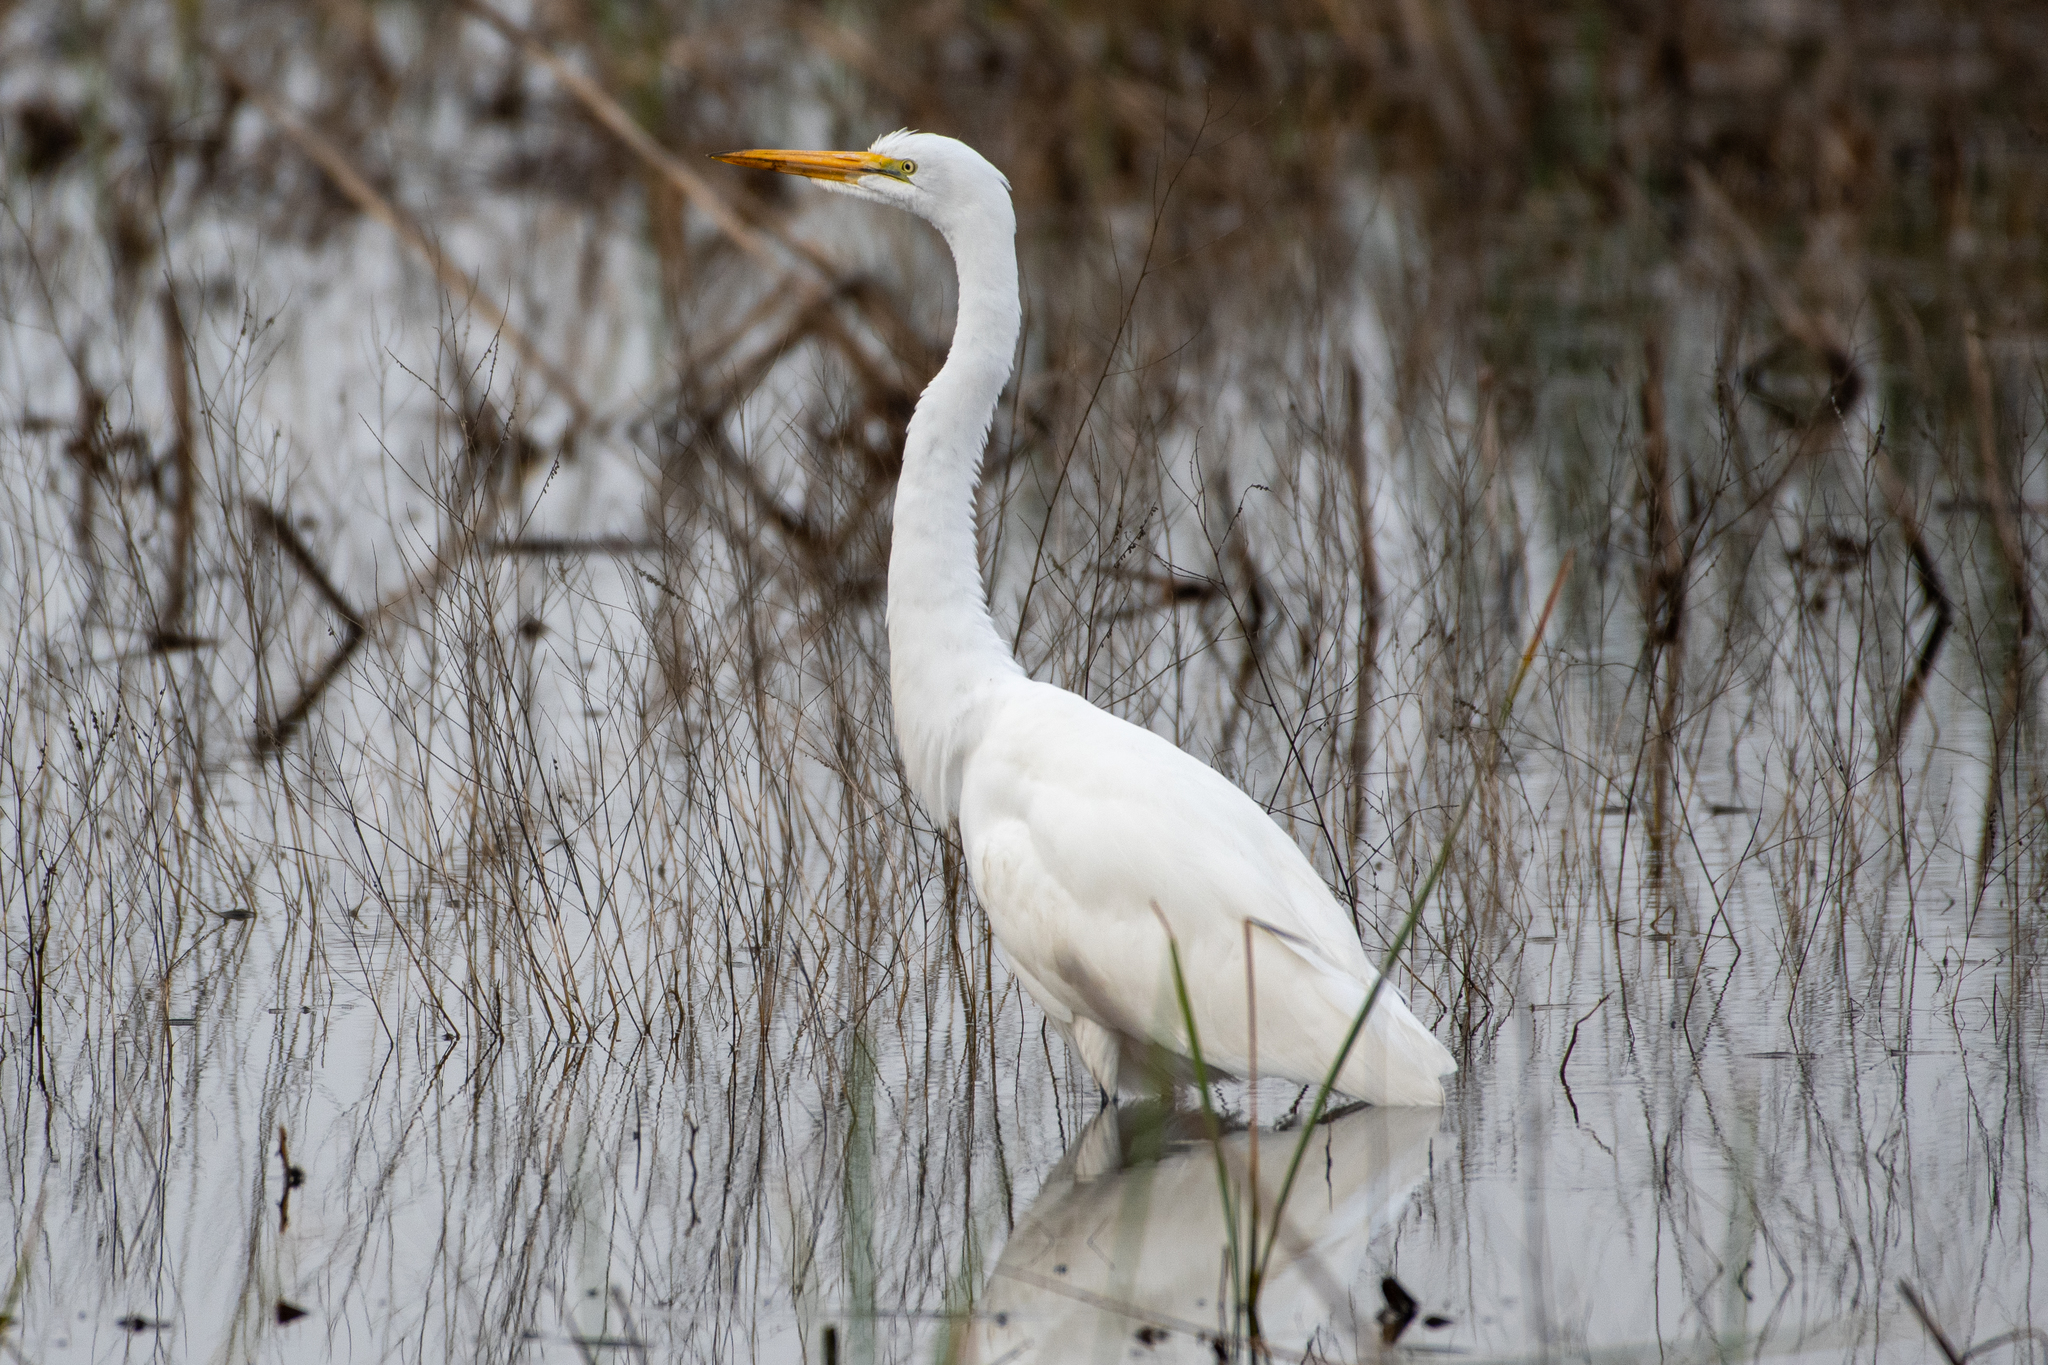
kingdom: Animalia
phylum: Chordata
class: Aves
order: Pelecaniformes
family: Ardeidae
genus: Ardea
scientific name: Ardea alba
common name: Great egret
